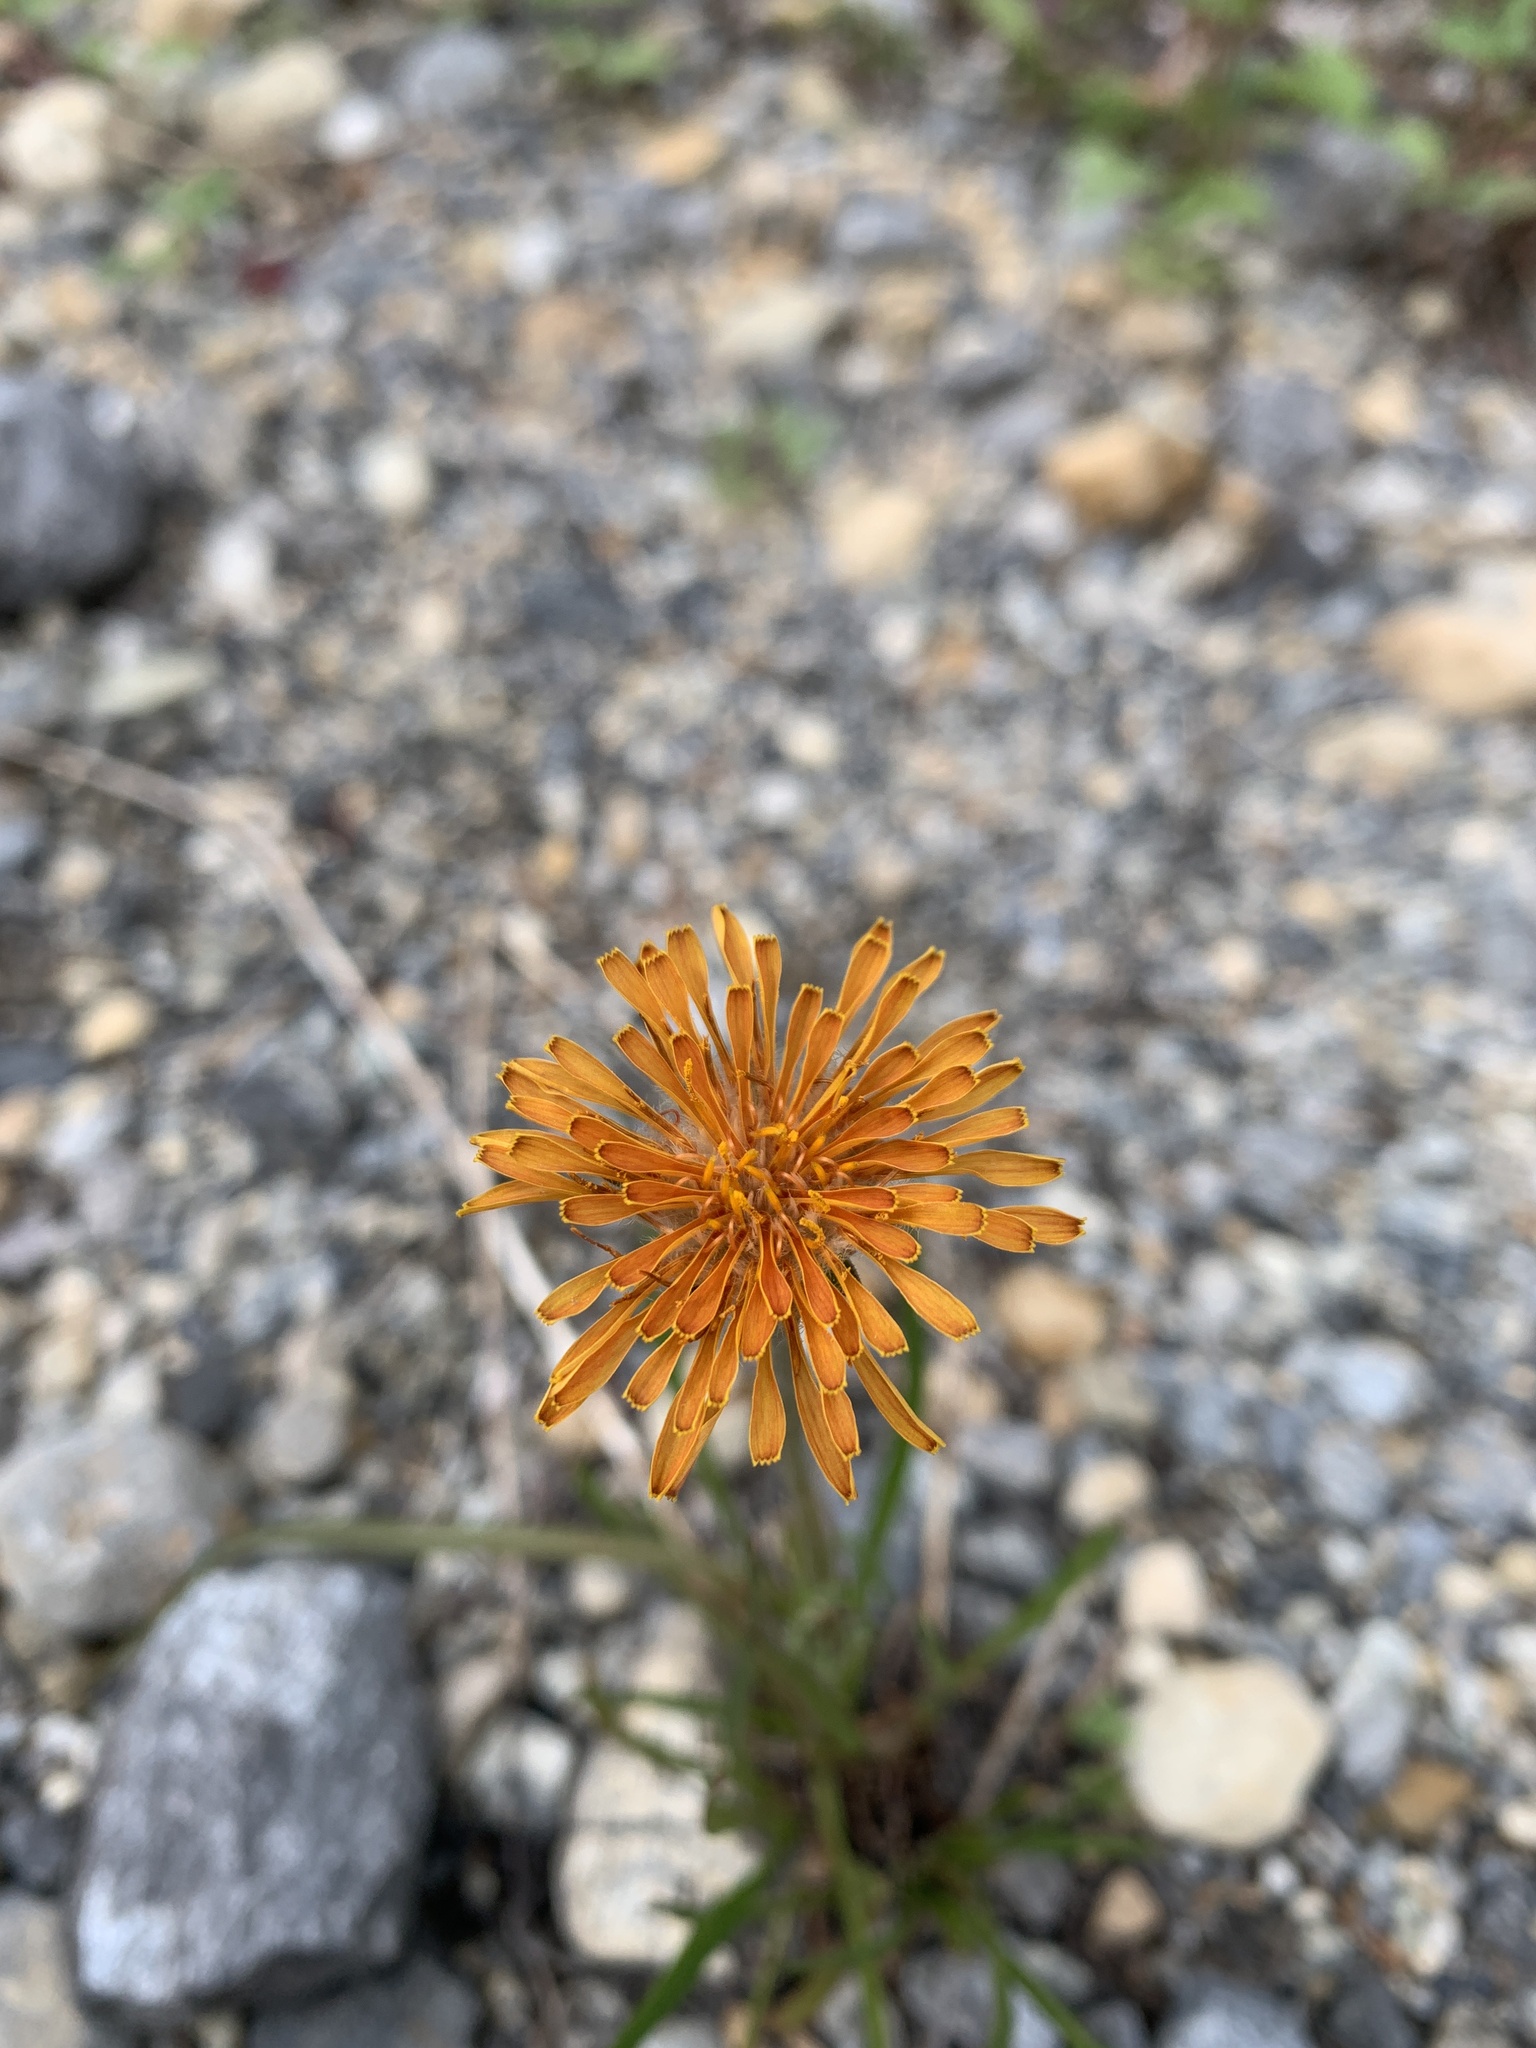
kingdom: Plantae
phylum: Tracheophyta
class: Magnoliopsida
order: Asterales
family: Asteraceae
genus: Agoseris
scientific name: Agoseris aurantiaca
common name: Mountain agoseris
